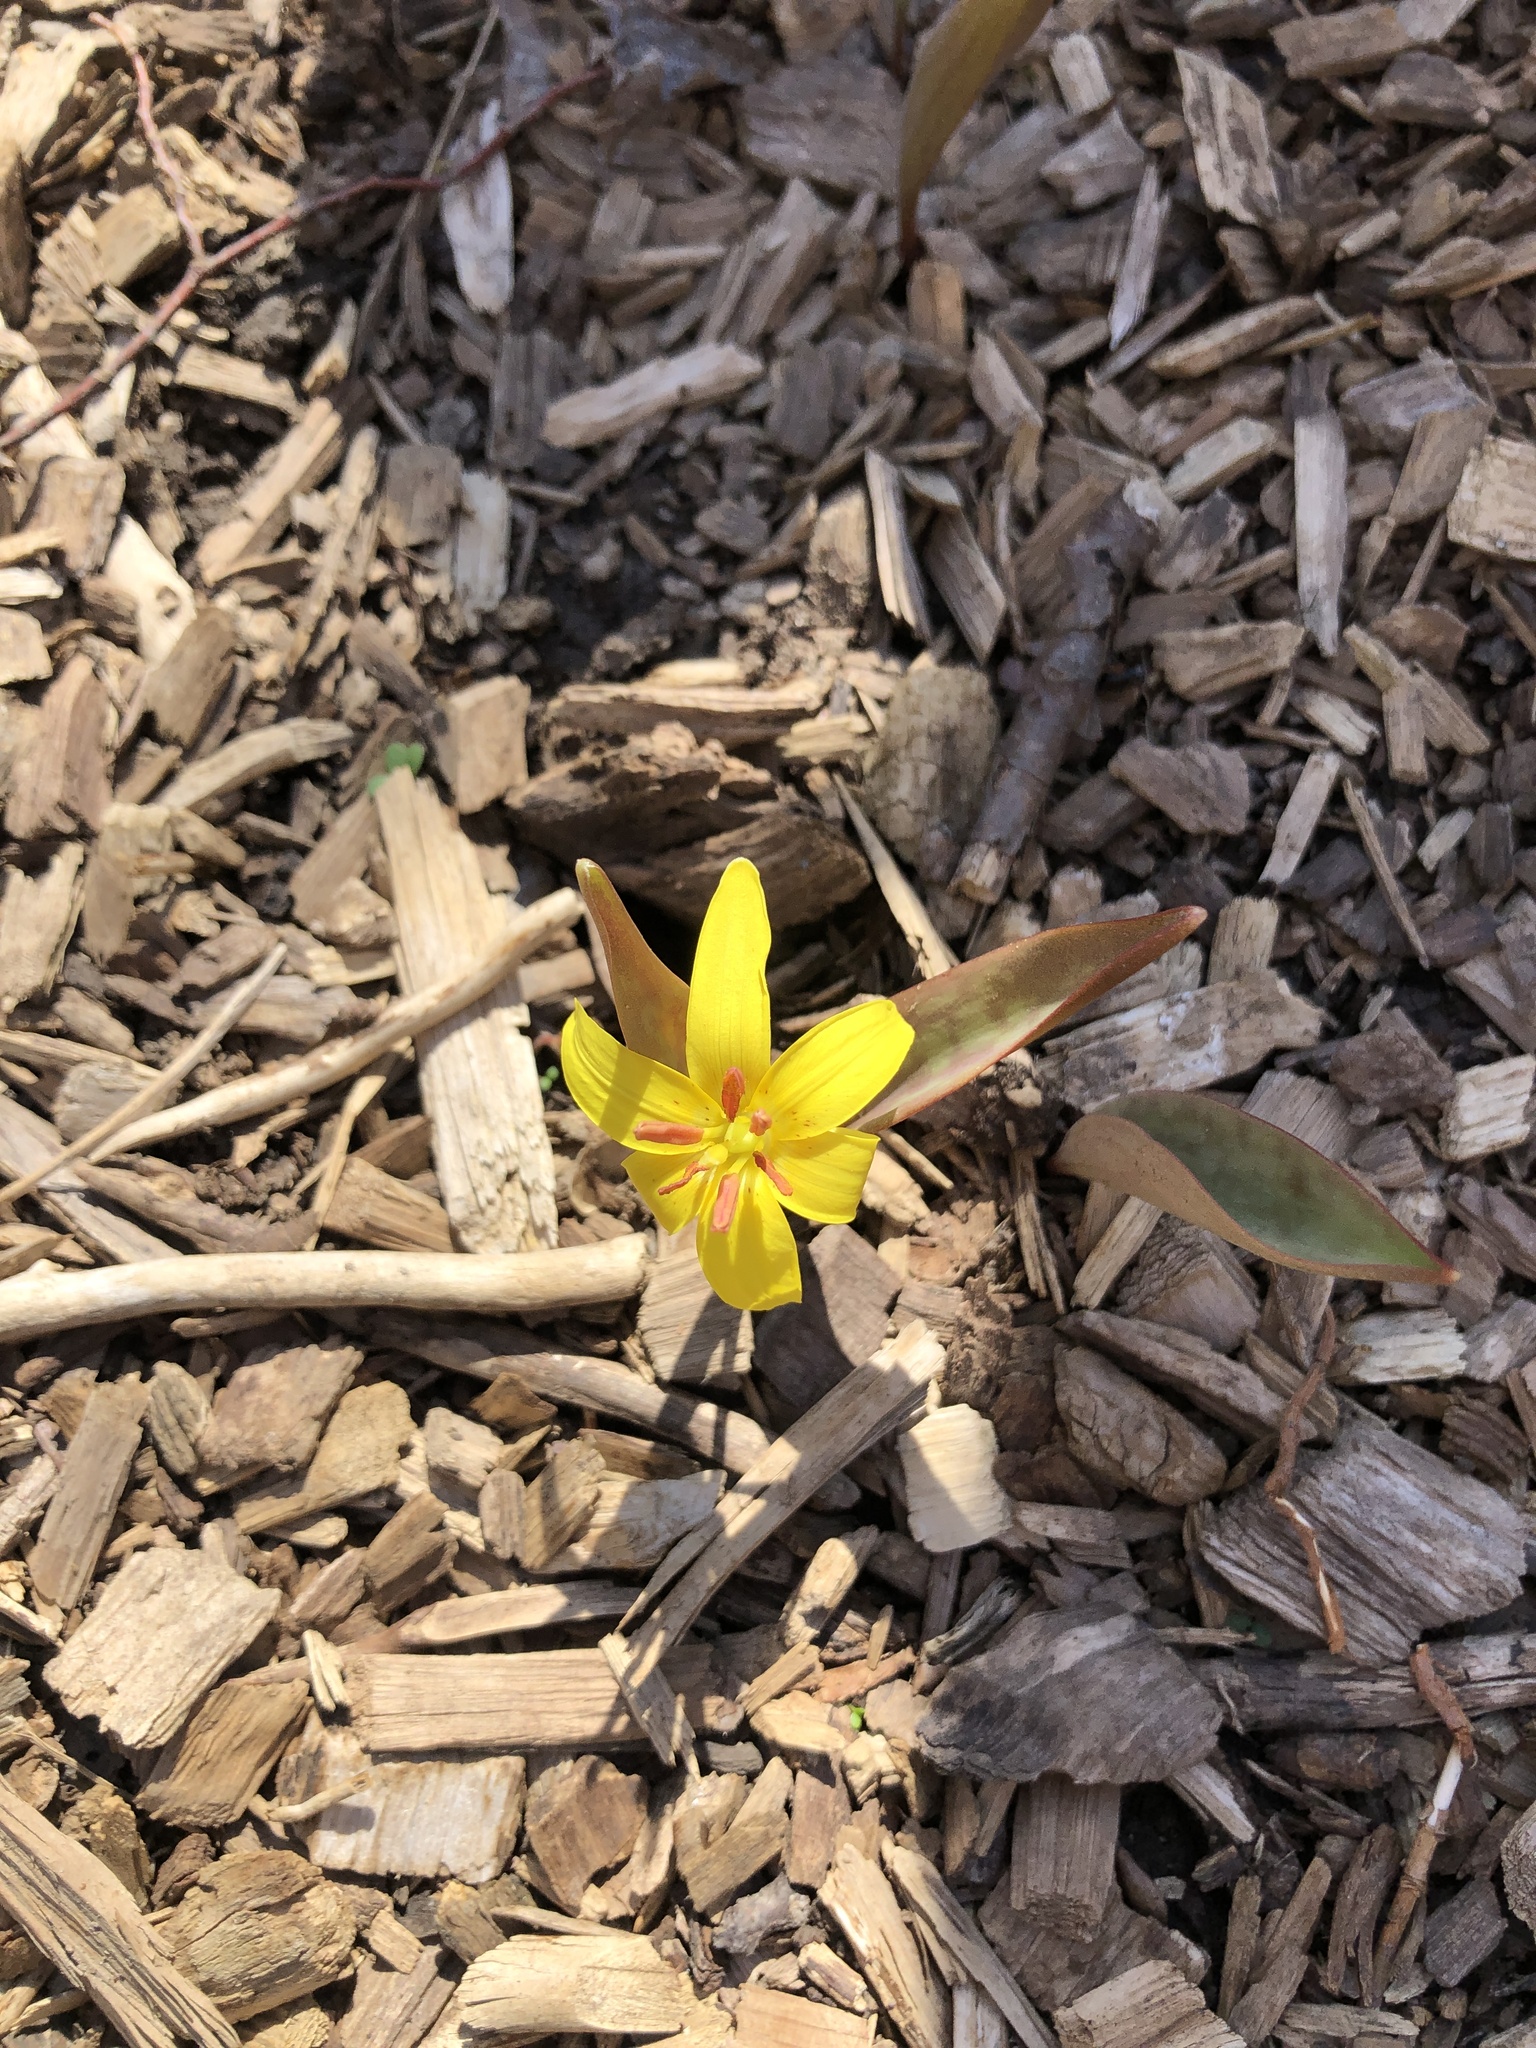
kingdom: Plantae
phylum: Tracheophyta
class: Liliopsida
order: Liliales
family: Liliaceae
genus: Erythronium
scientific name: Erythronium americanum
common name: Yellow adder's-tongue
